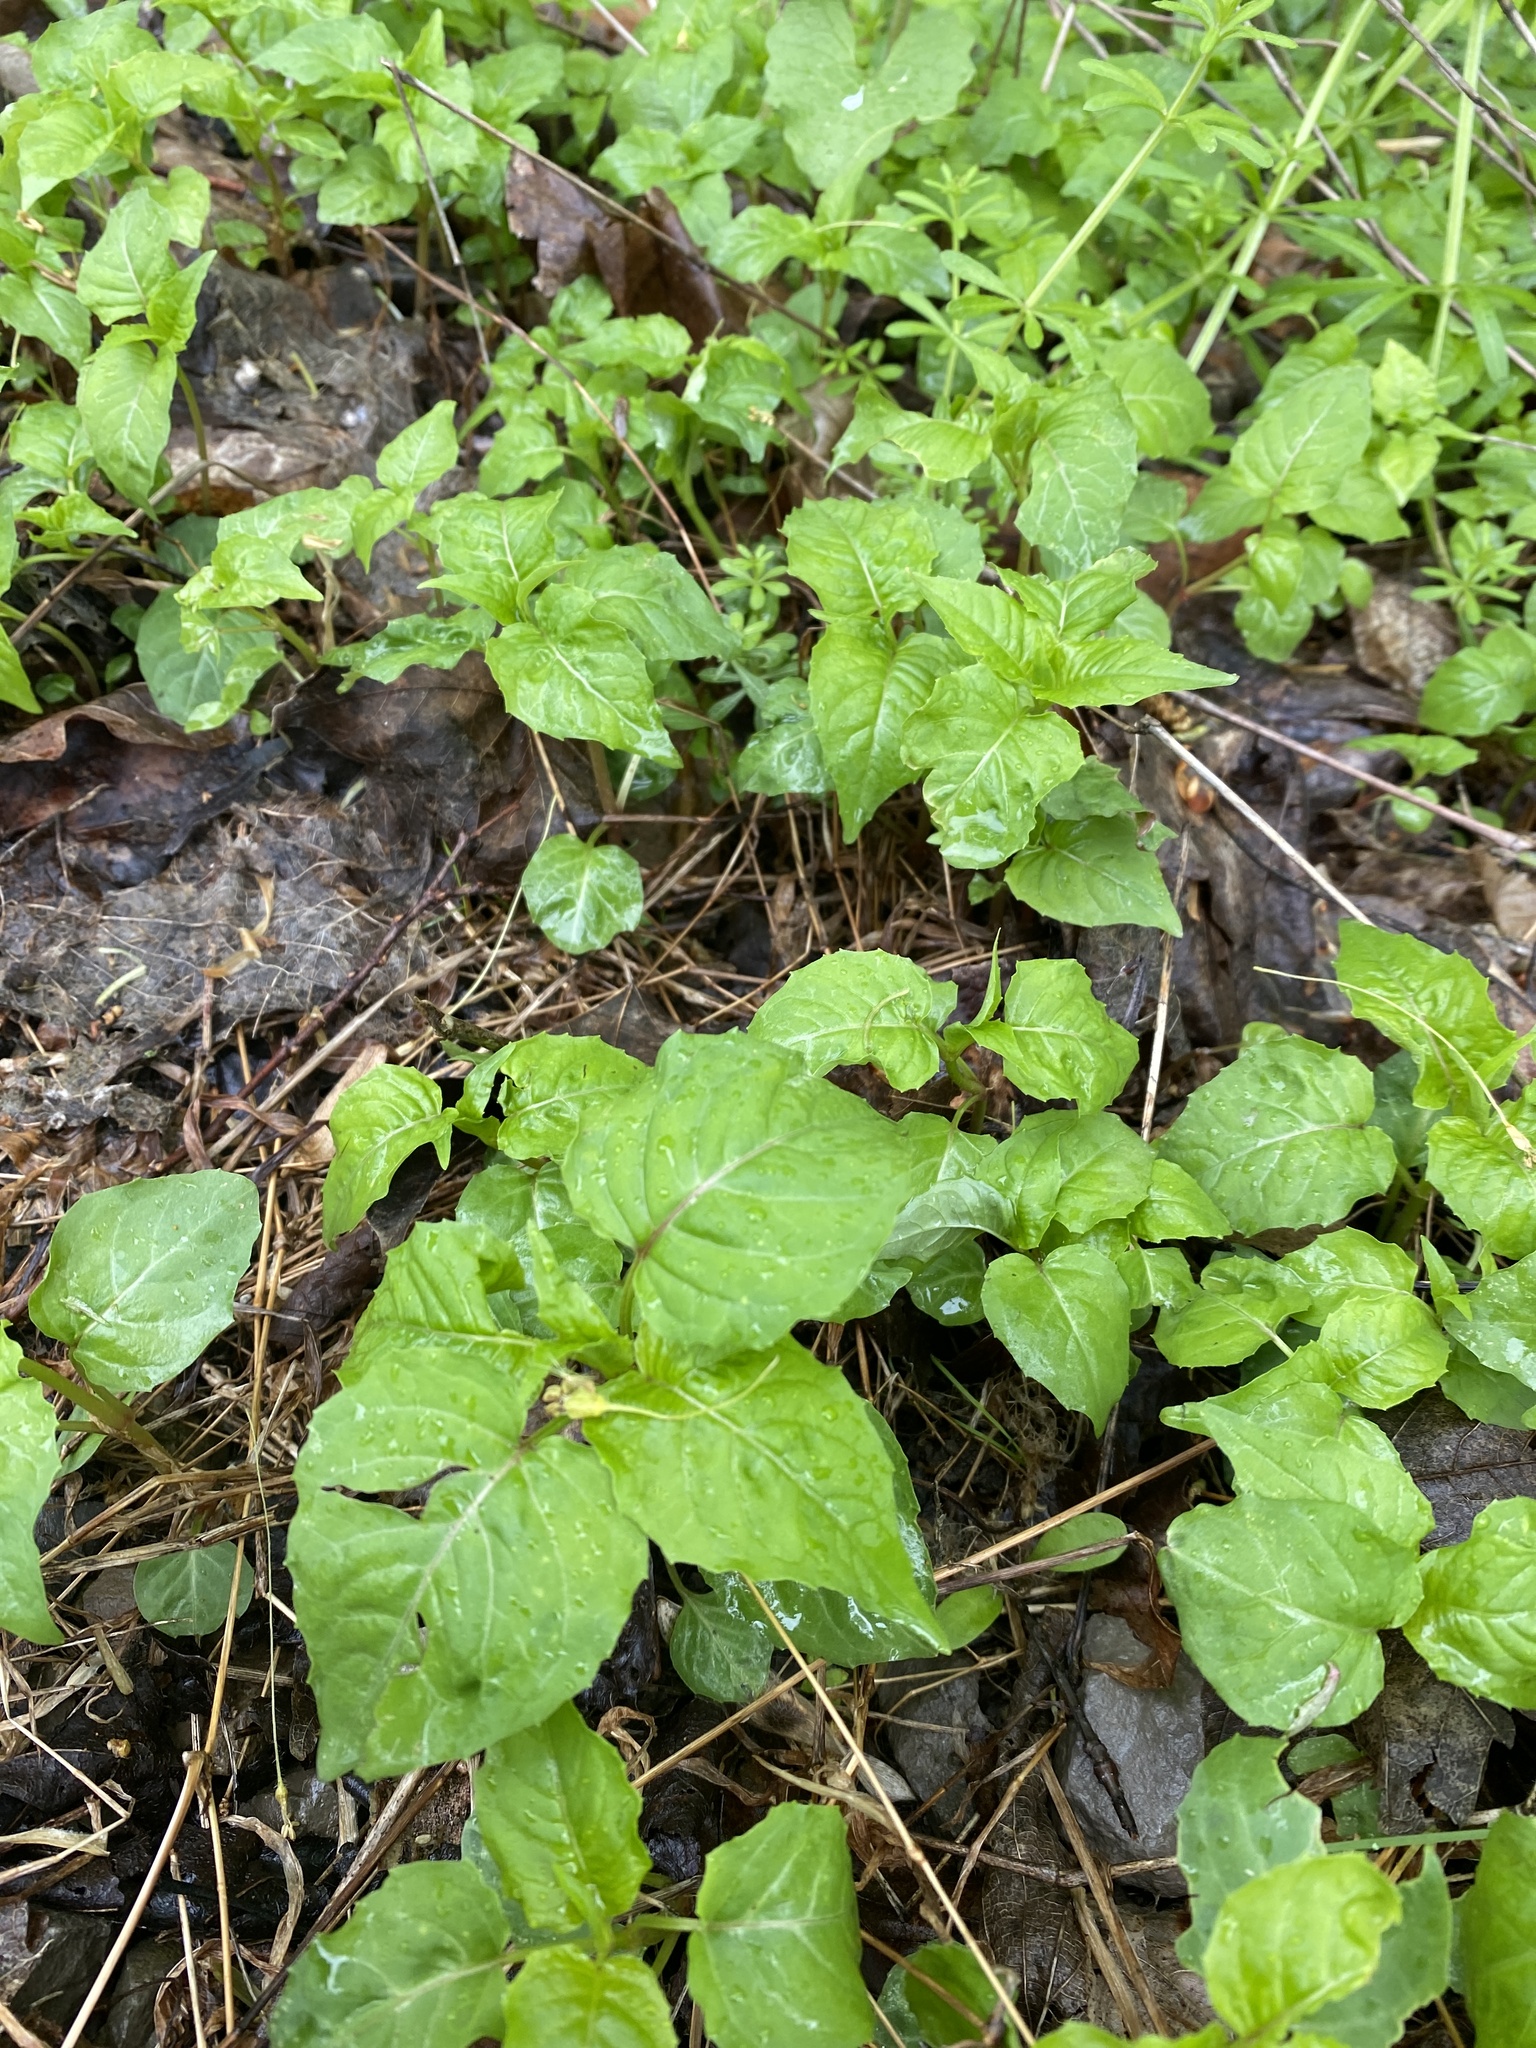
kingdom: Plantae
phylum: Tracheophyta
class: Magnoliopsida
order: Myrtales
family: Onagraceae
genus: Circaea
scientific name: Circaea canadensis
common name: Broad-leaved enchanter's nightshade
